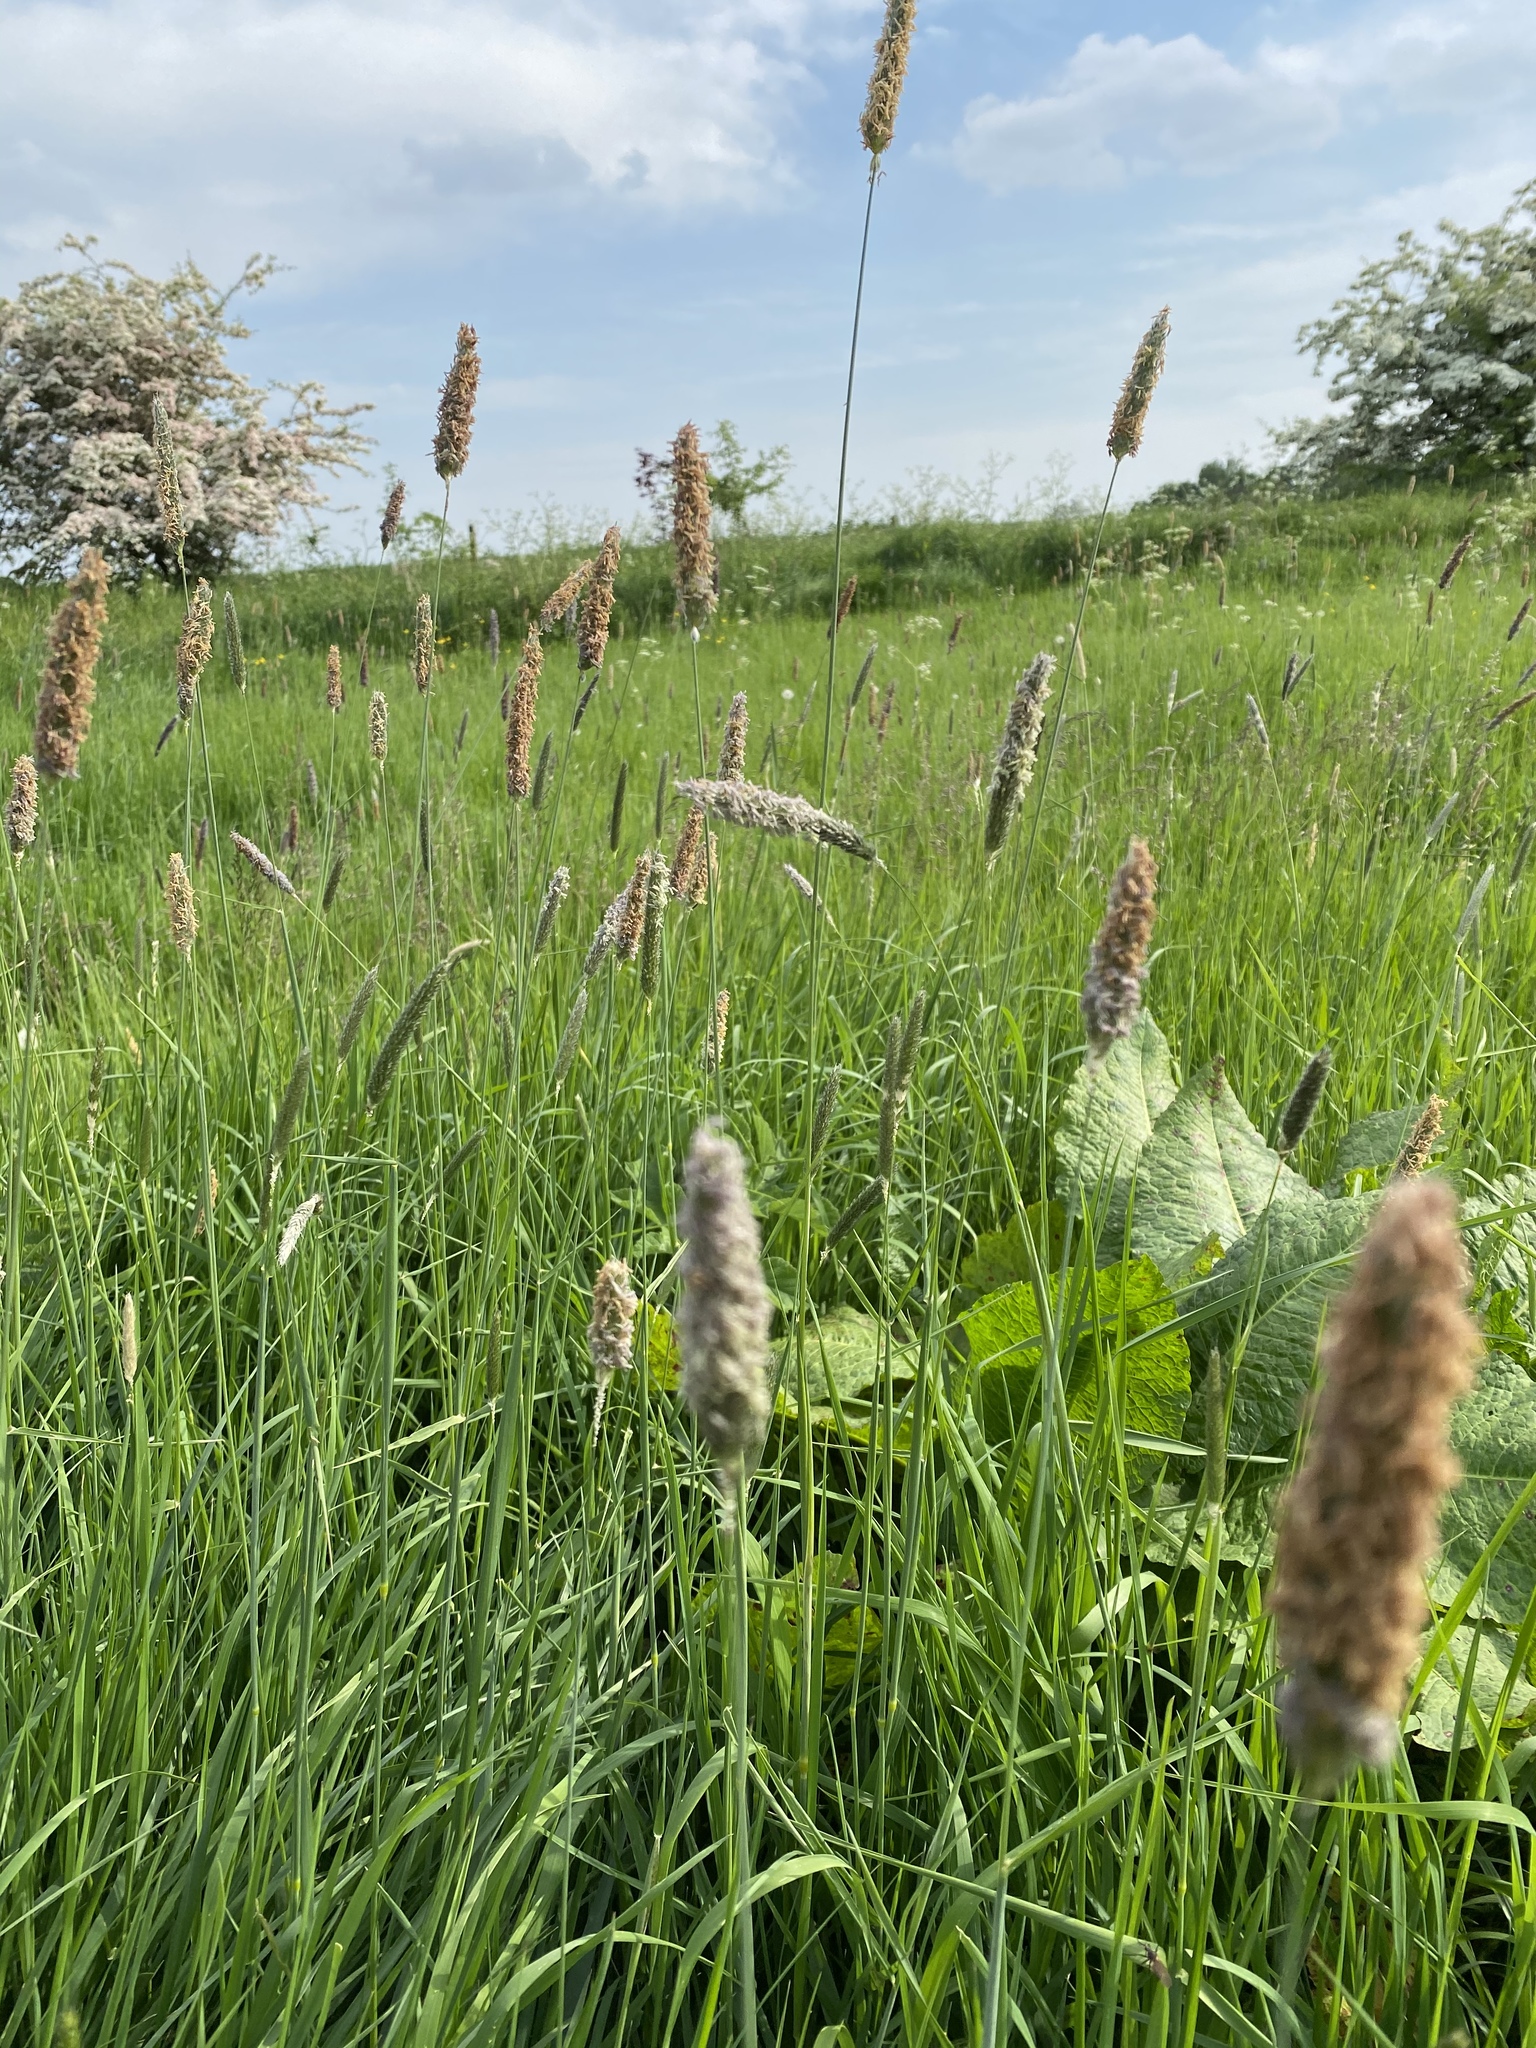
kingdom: Plantae
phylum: Tracheophyta
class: Liliopsida
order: Poales
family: Poaceae
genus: Alopecurus
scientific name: Alopecurus pratensis
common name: Meadow foxtail
